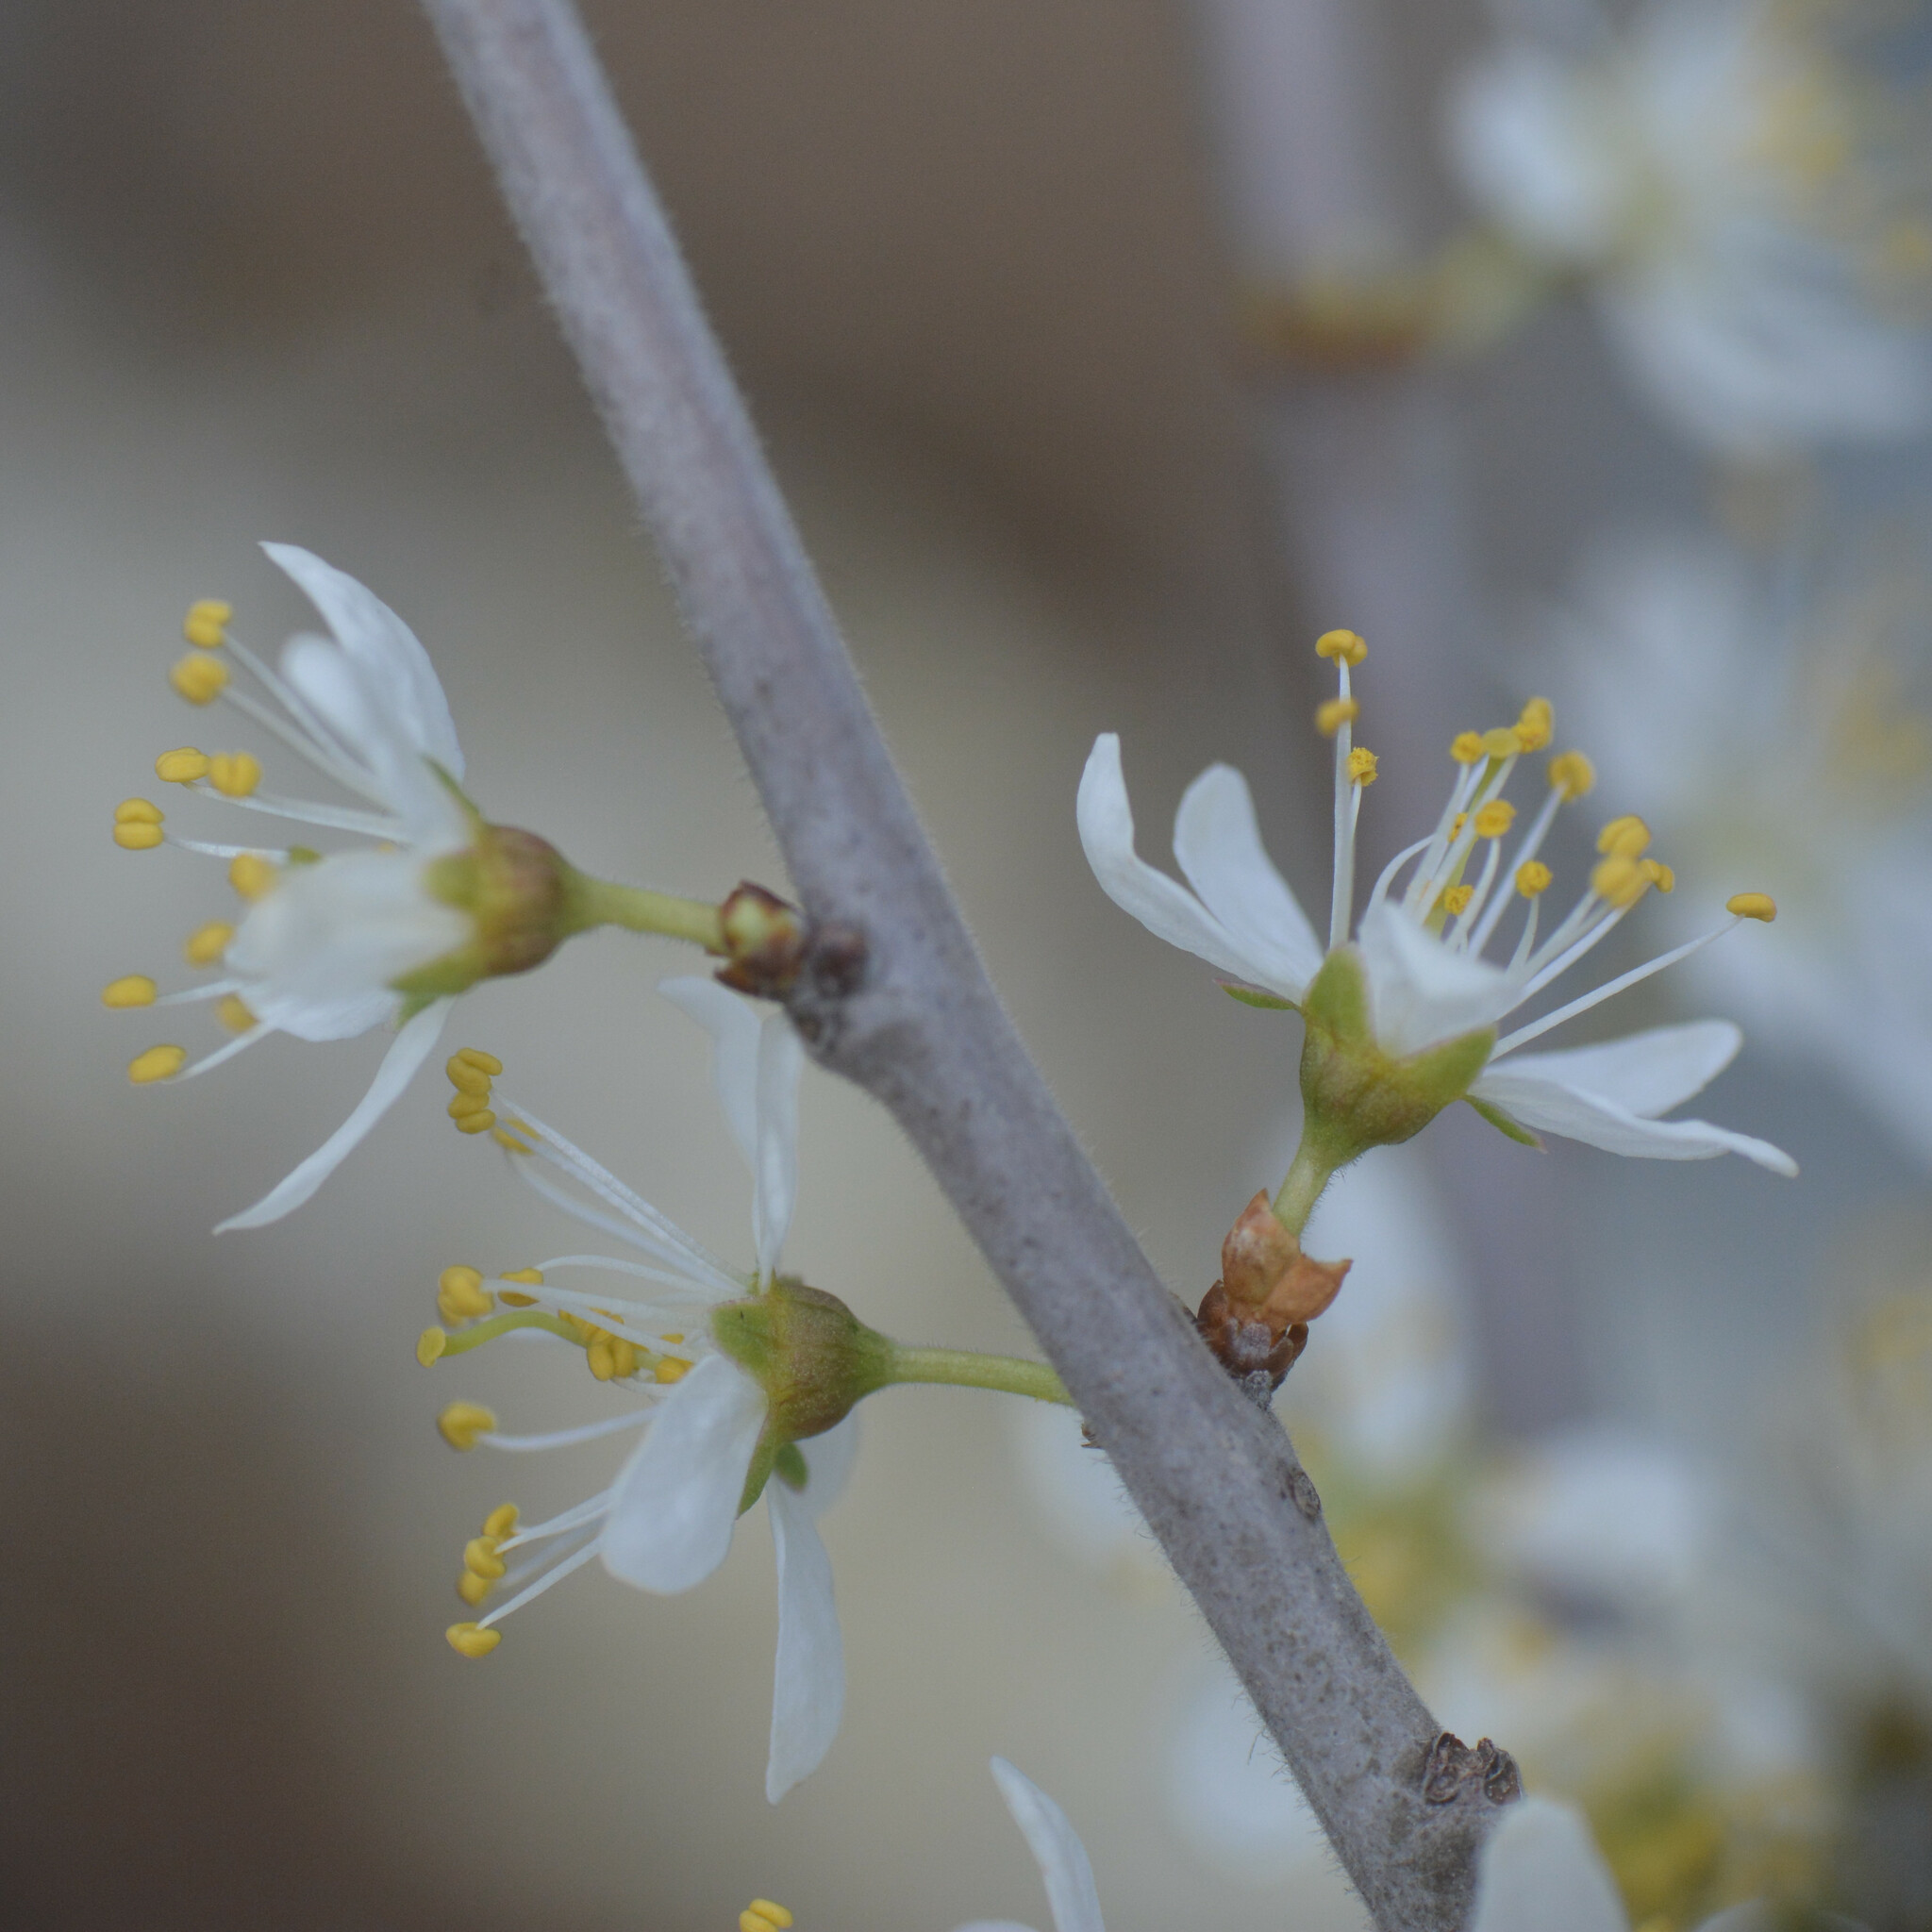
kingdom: Plantae
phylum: Tracheophyta
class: Magnoliopsida
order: Rosales
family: Rosaceae
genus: Prunus
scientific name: Prunus spinosa
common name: Blackthorn
